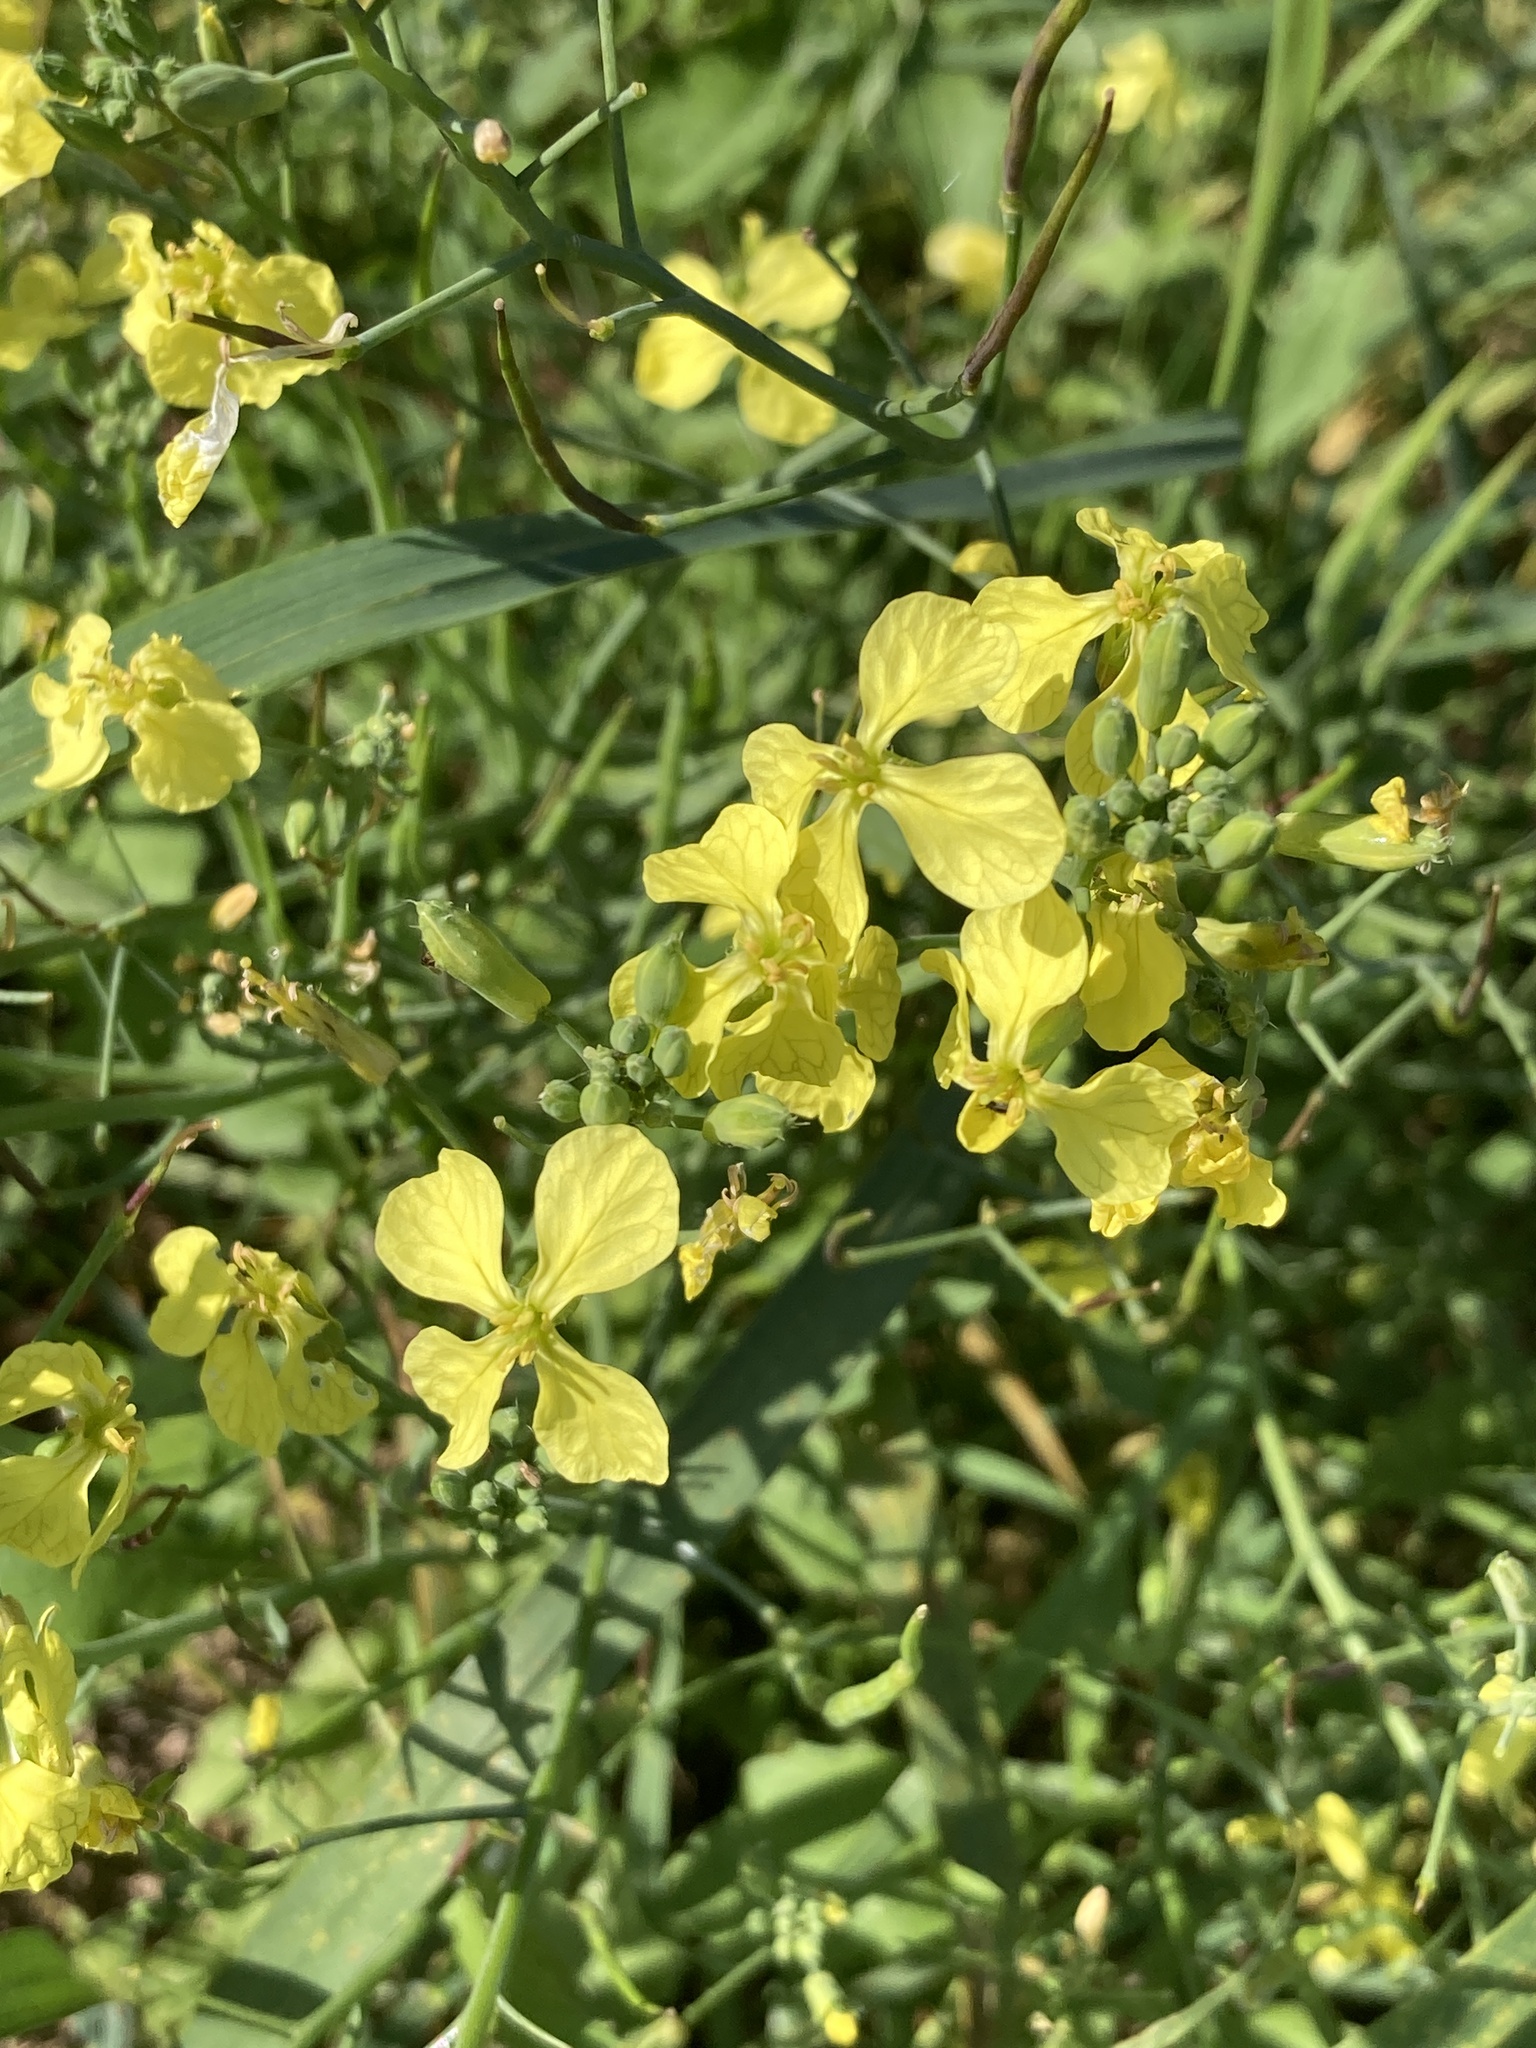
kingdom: Plantae
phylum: Tracheophyta
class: Magnoliopsida
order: Brassicales
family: Brassicaceae
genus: Raphanus
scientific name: Raphanus raphanistrum
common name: Wild radish
